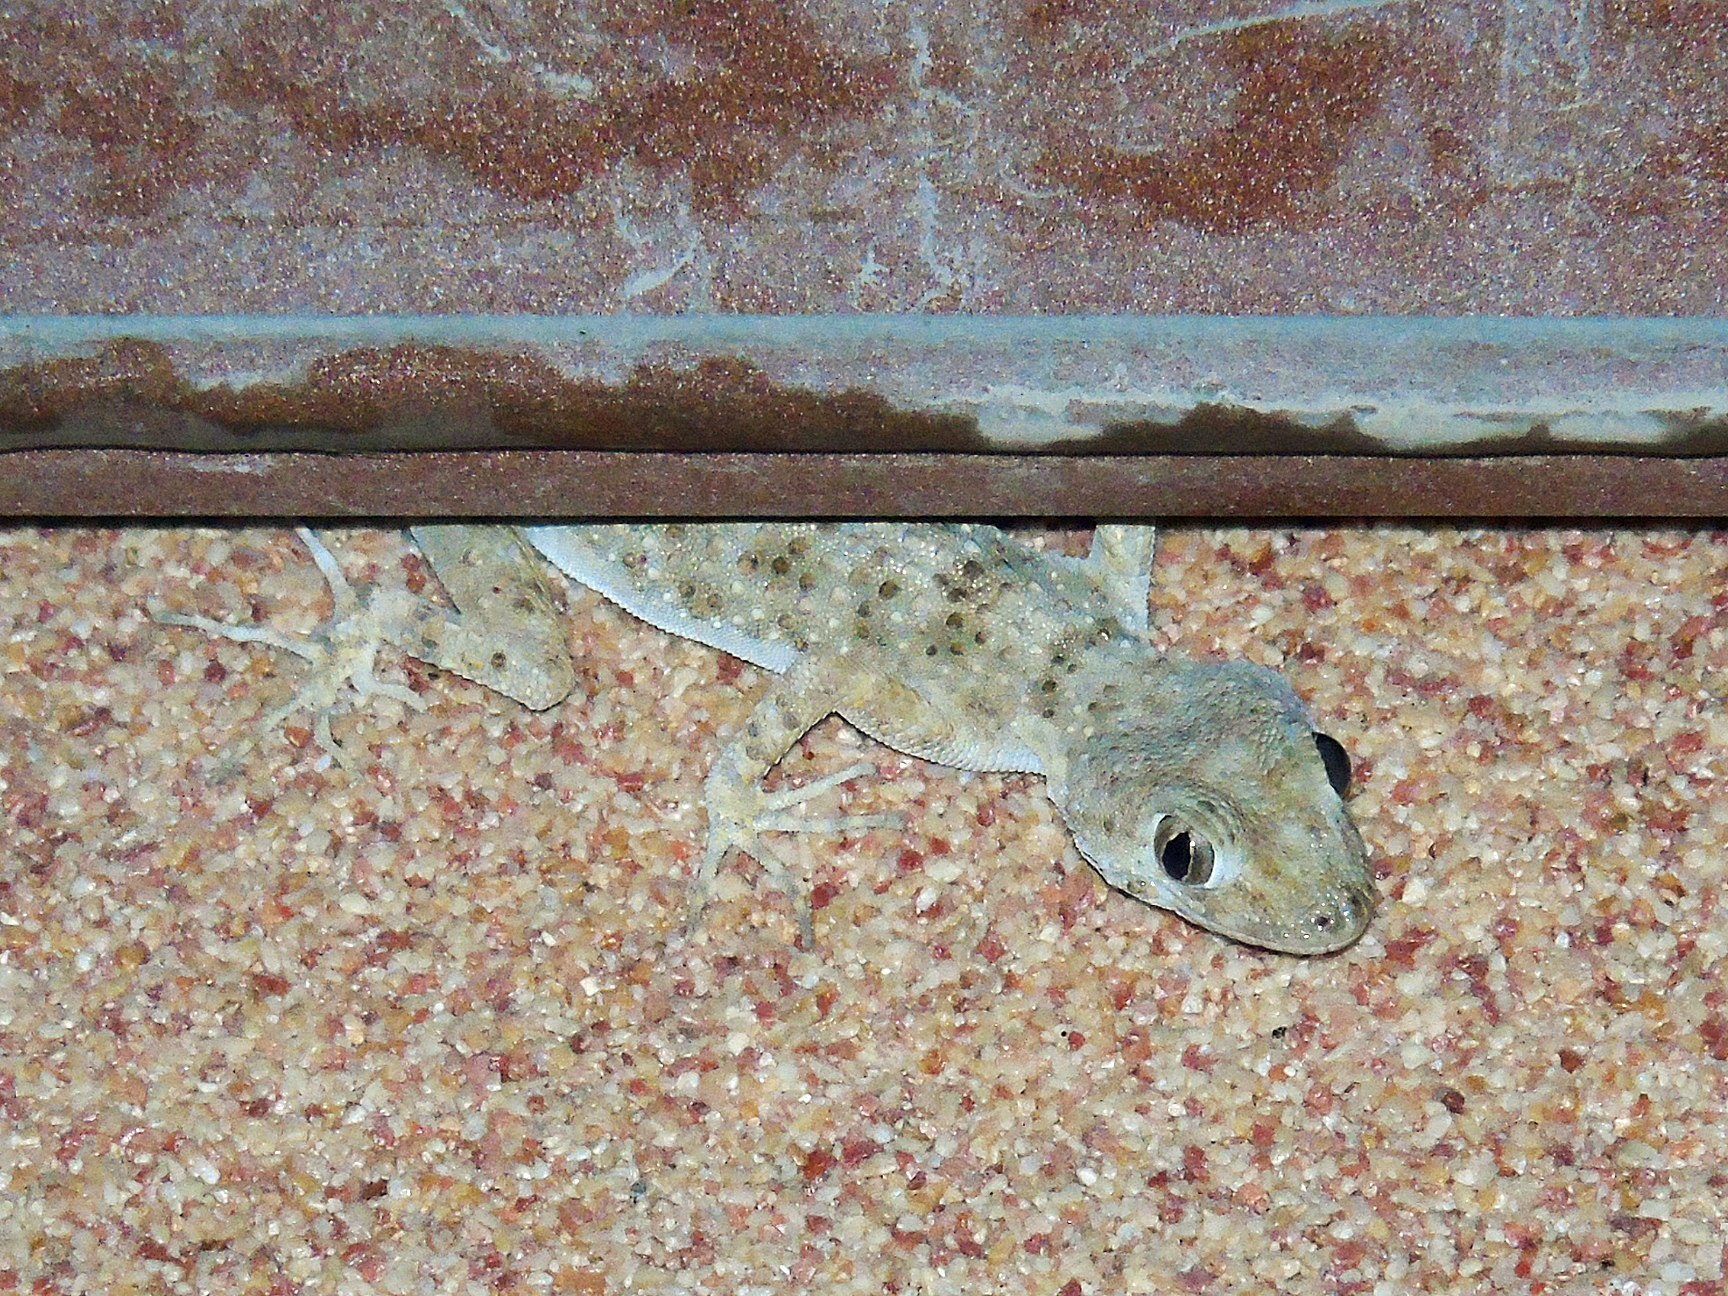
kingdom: Animalia
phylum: Chordata
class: Squamata
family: Gekkonidae
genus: Tenuidactylus
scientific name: Tenuidactylus bogdanovi
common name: Bogdanov’s thin-toed gecko
